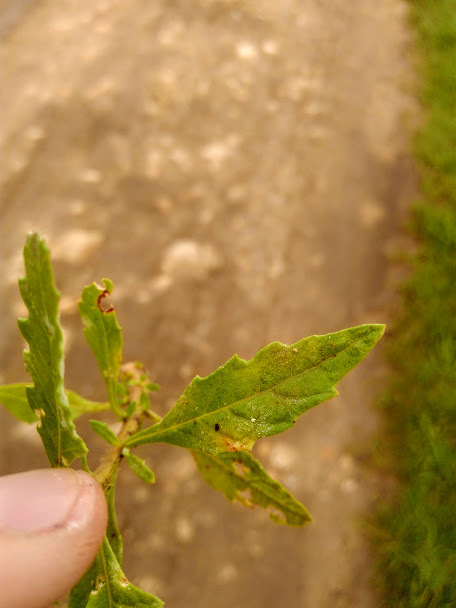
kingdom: Plantae
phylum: Tracheophyta
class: Magnoliopsida
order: Caryophyllales
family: Amaranthaceae
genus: Dysphania
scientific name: Dysphania ambrosioides
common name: Wormseed
